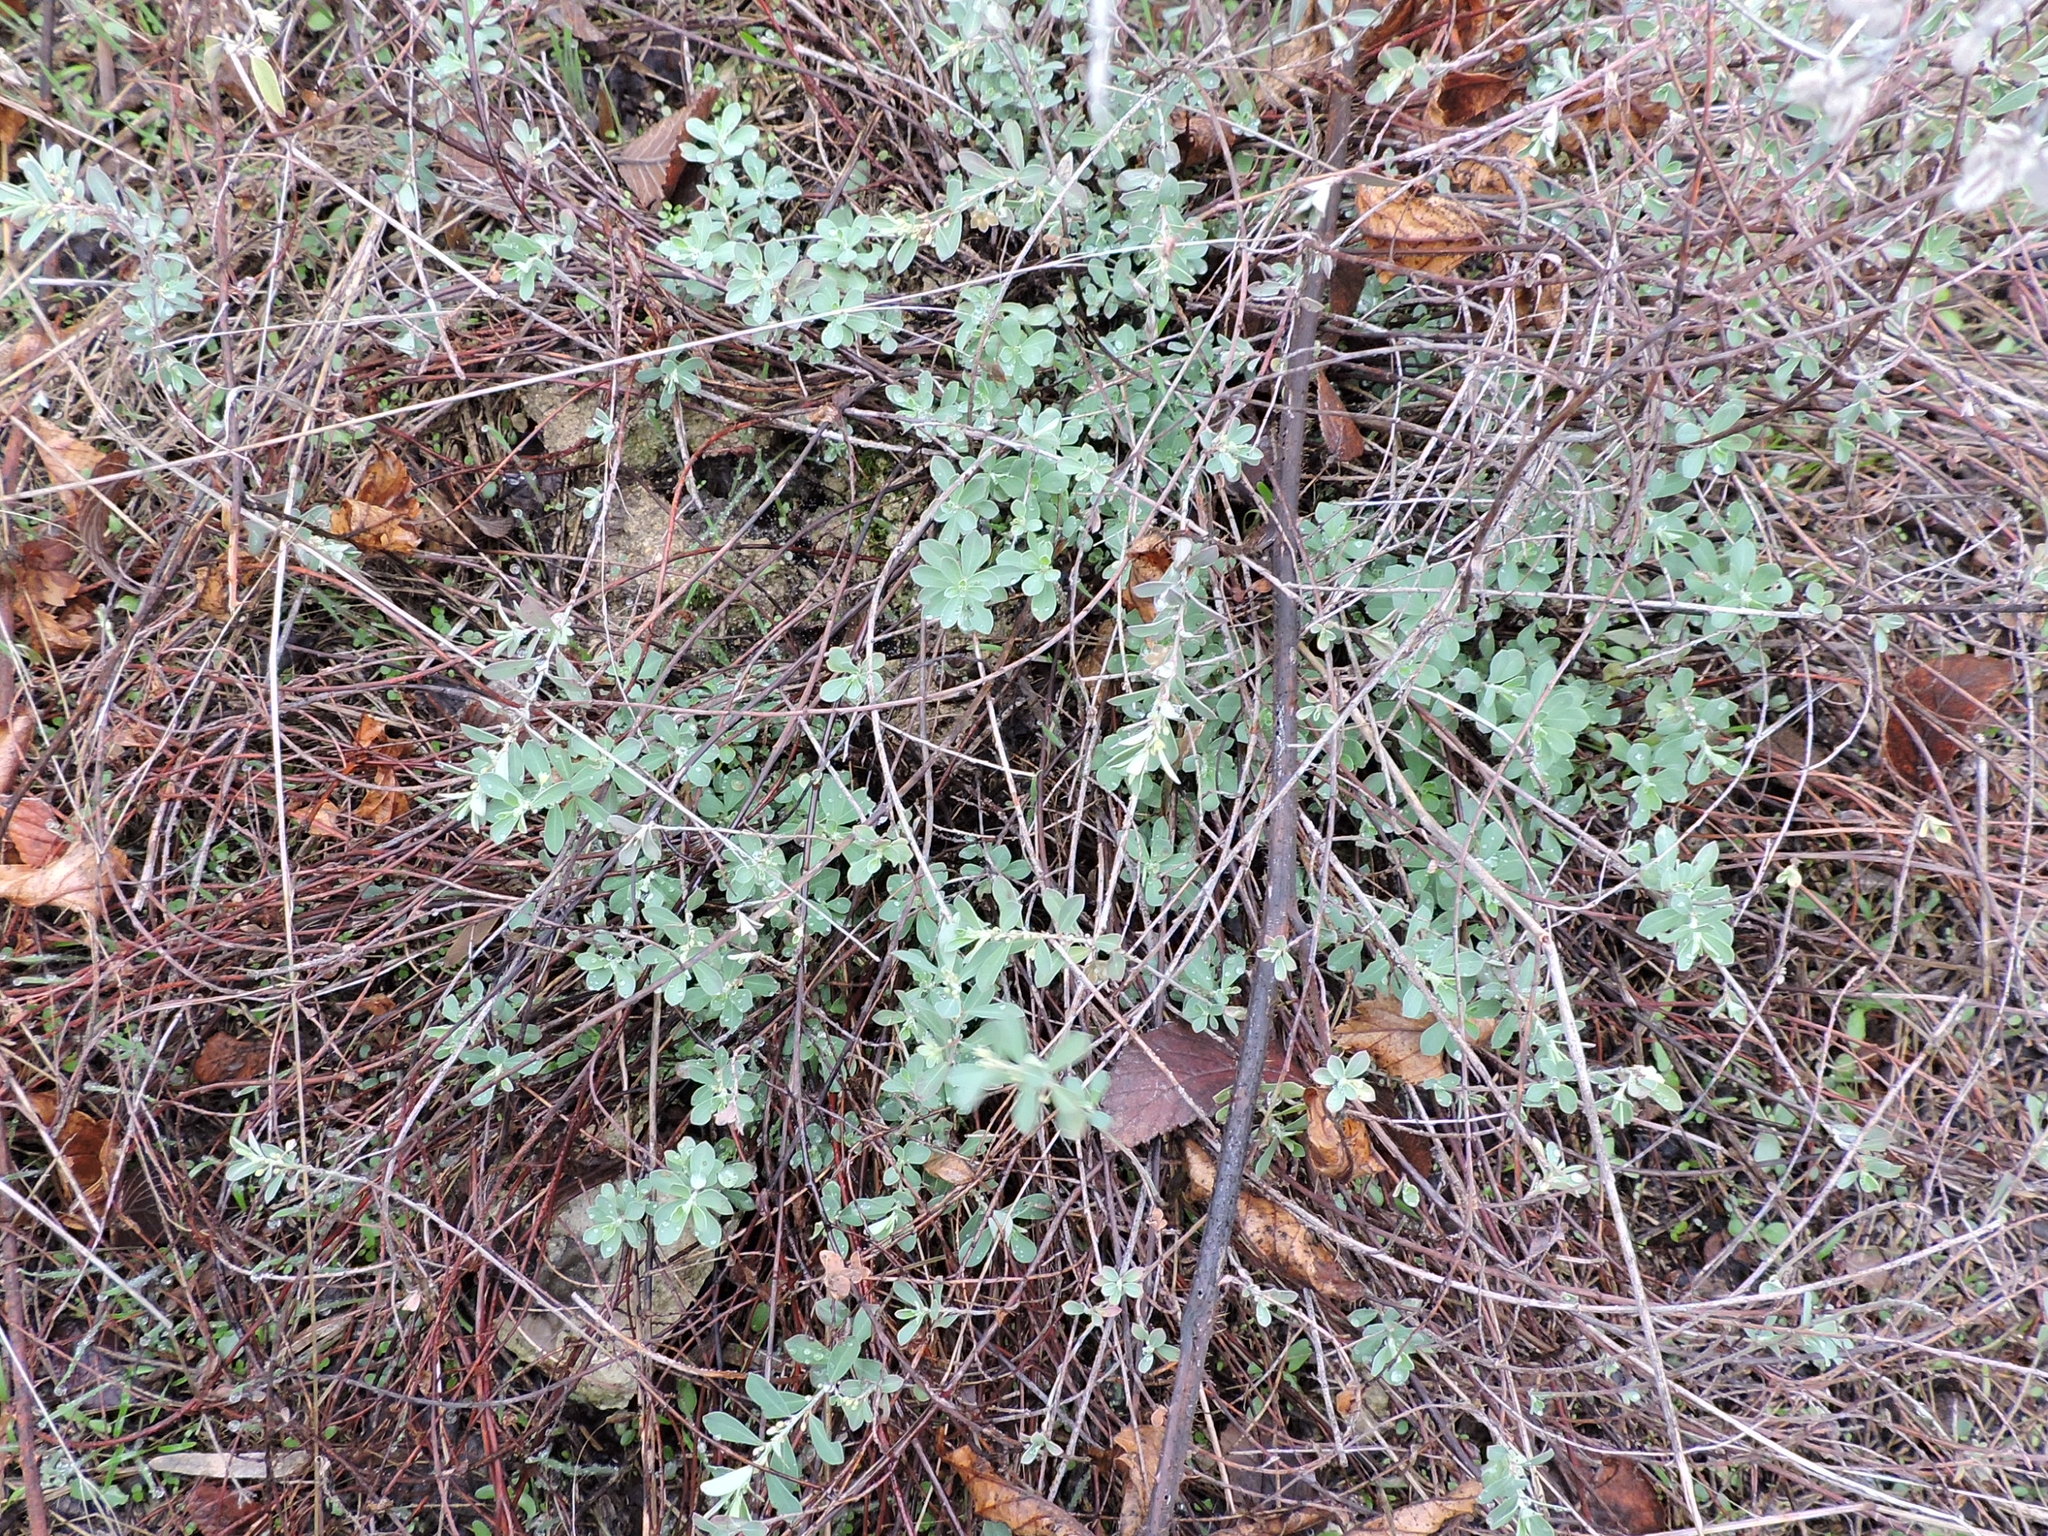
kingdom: Plantae
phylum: Tracheophyta
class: Magnoliopsida
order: Malpighiales
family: Phyllanthaceae
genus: Phyllanthus
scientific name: Phyllanthus polygonoides
